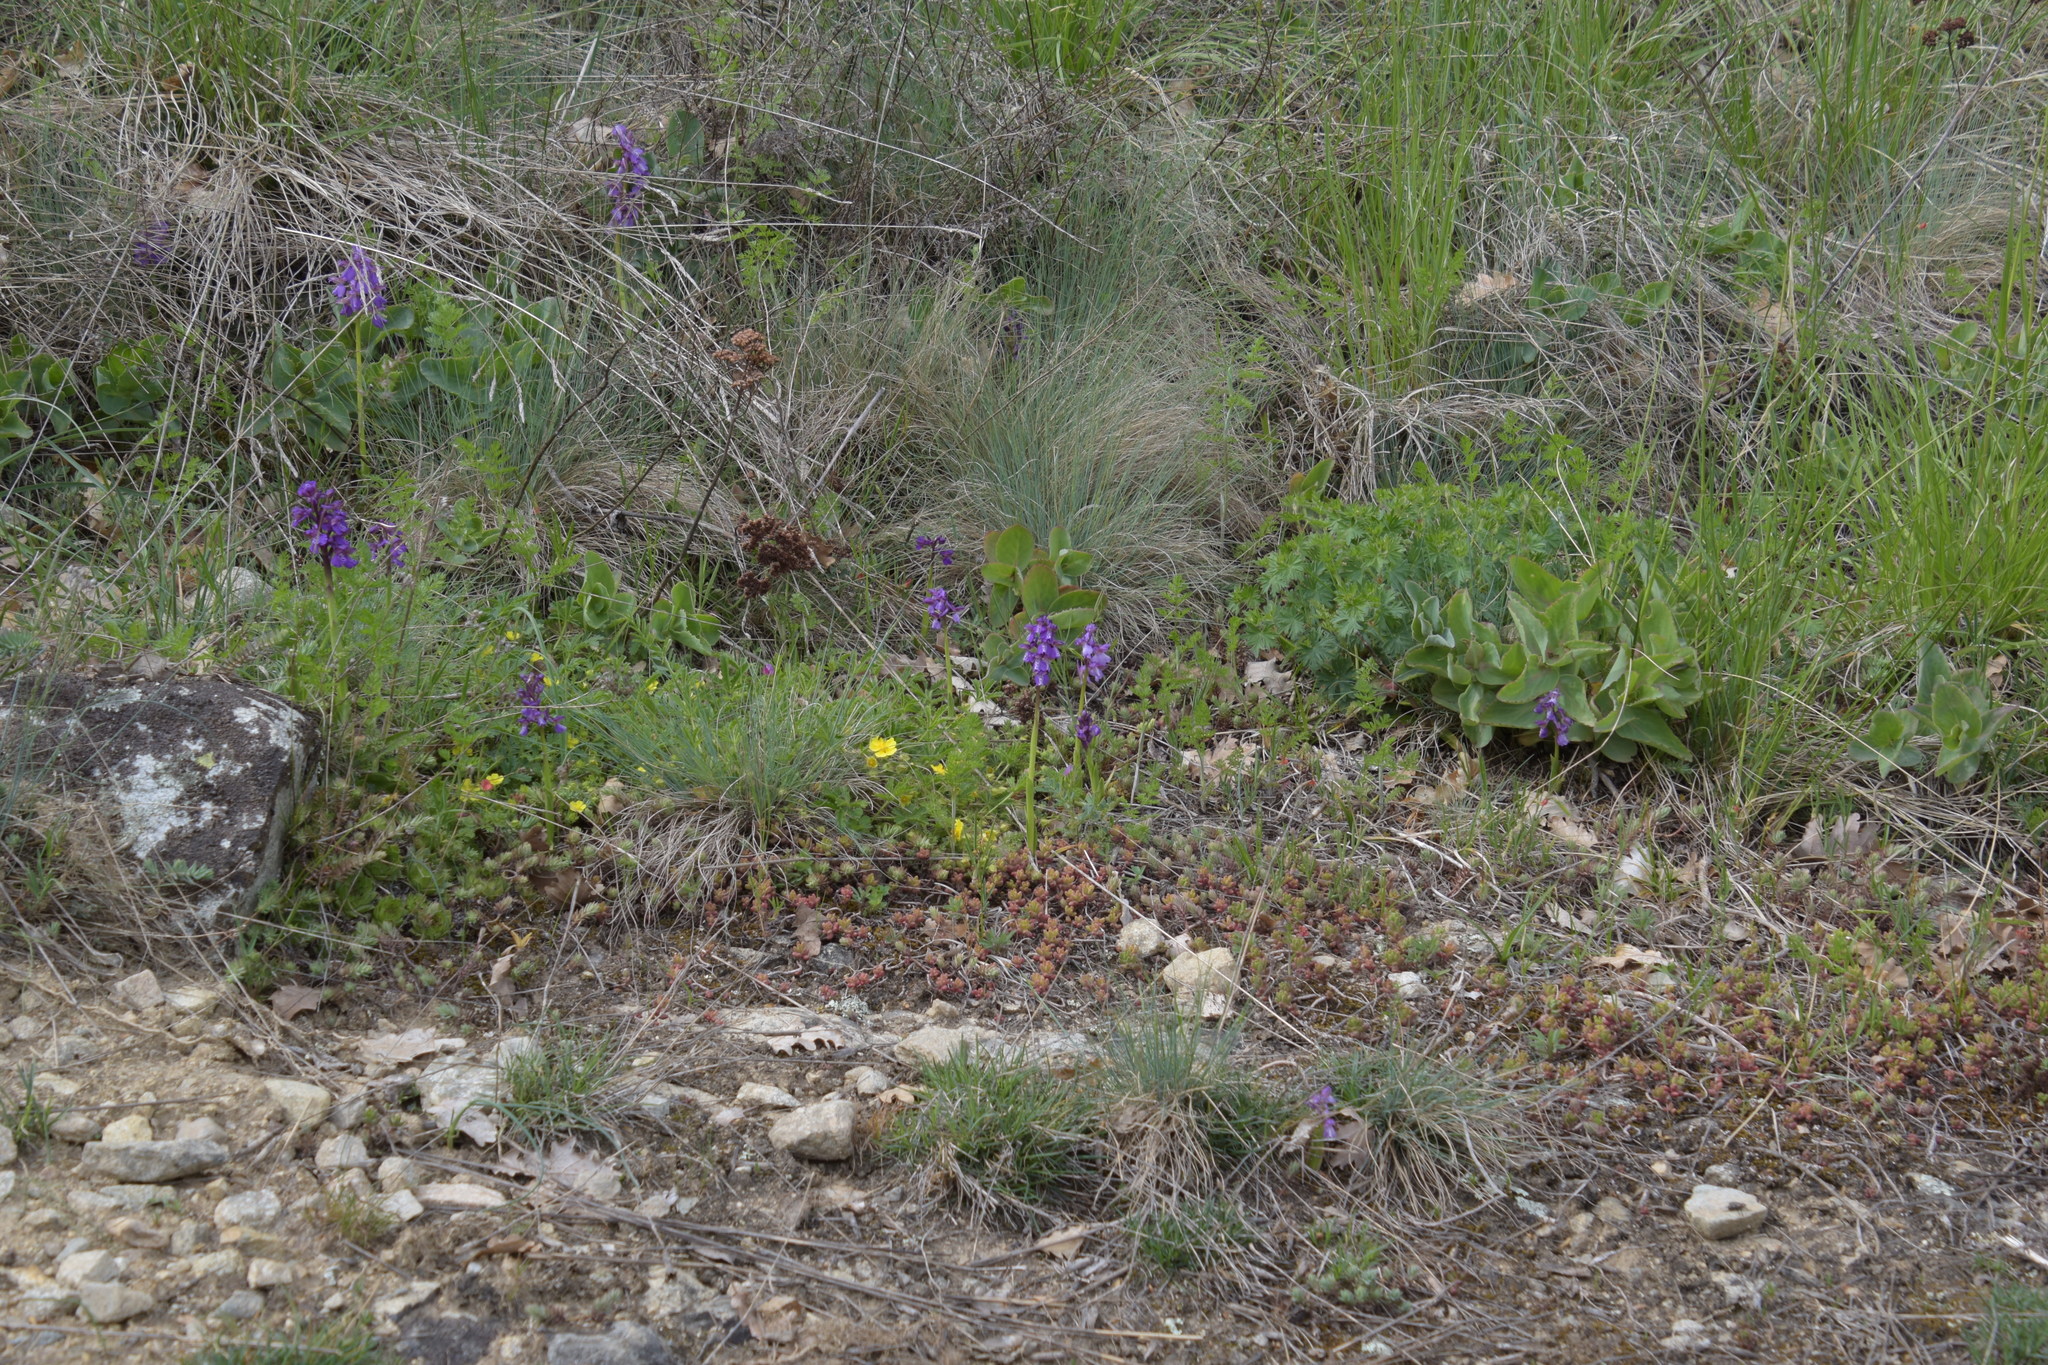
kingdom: Plantae
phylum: Tracheophyta
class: Liliopsida
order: Asparagales
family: Orchidaceae
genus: Anacamptis
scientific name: Anacamptis morio
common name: Green-winged orchid
